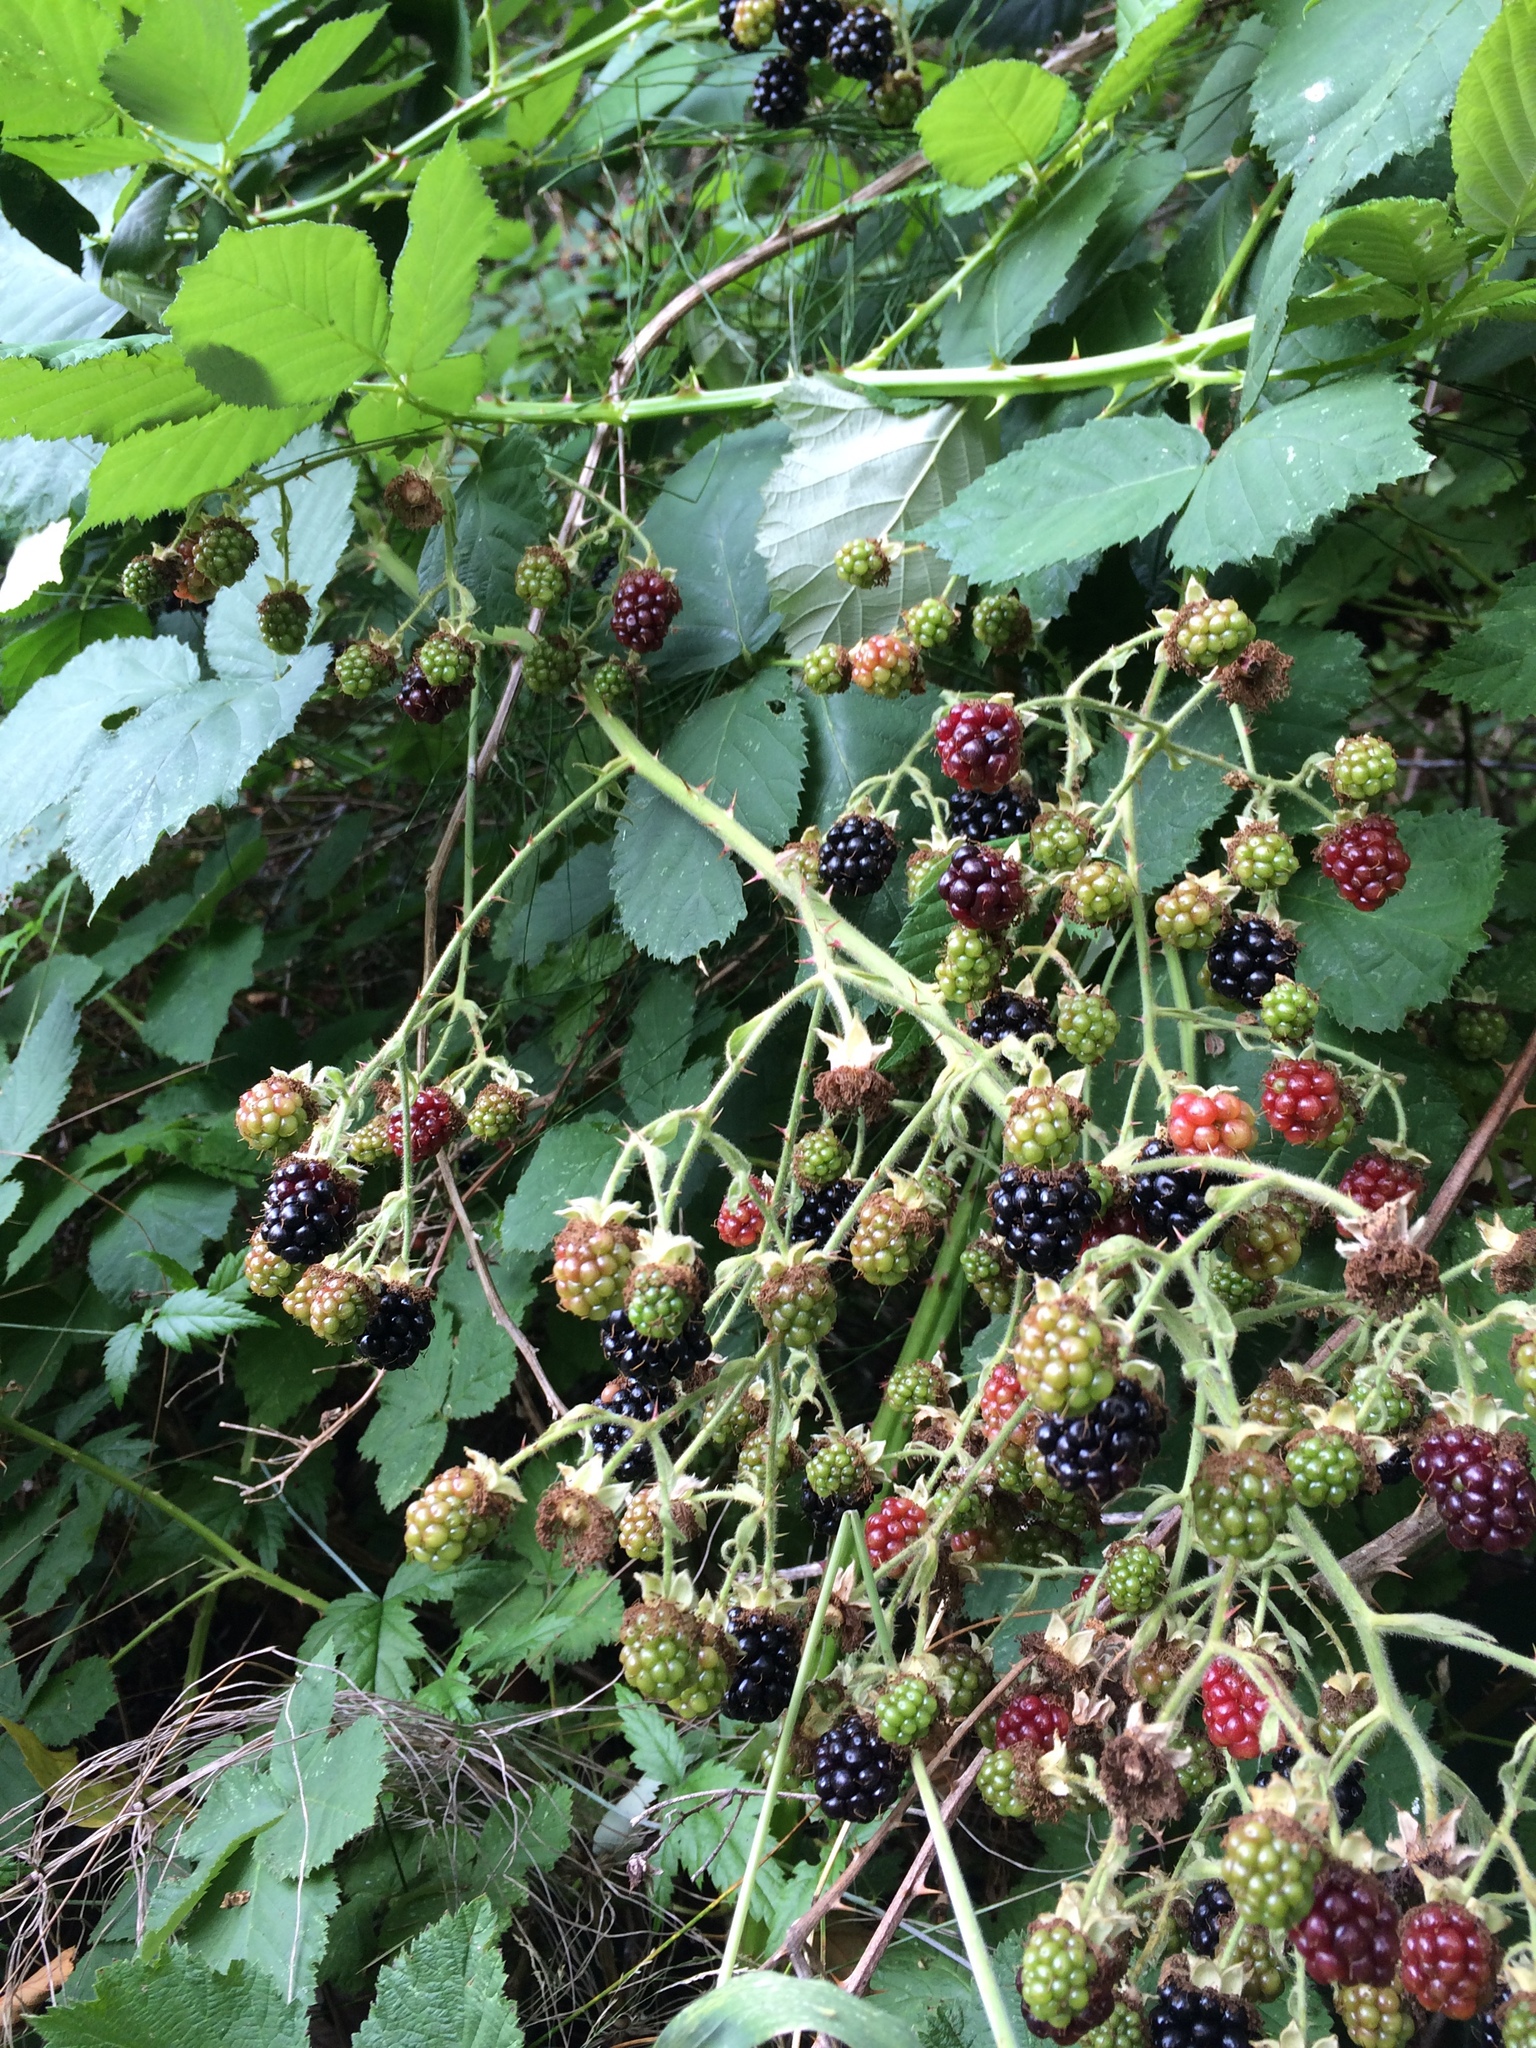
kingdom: Plantae
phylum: Tracheophyta
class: Magnoliopsida
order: Rosales
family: Rosaceae
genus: Rubus
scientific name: Rubus armeniacus
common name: Himalayan blackberry
